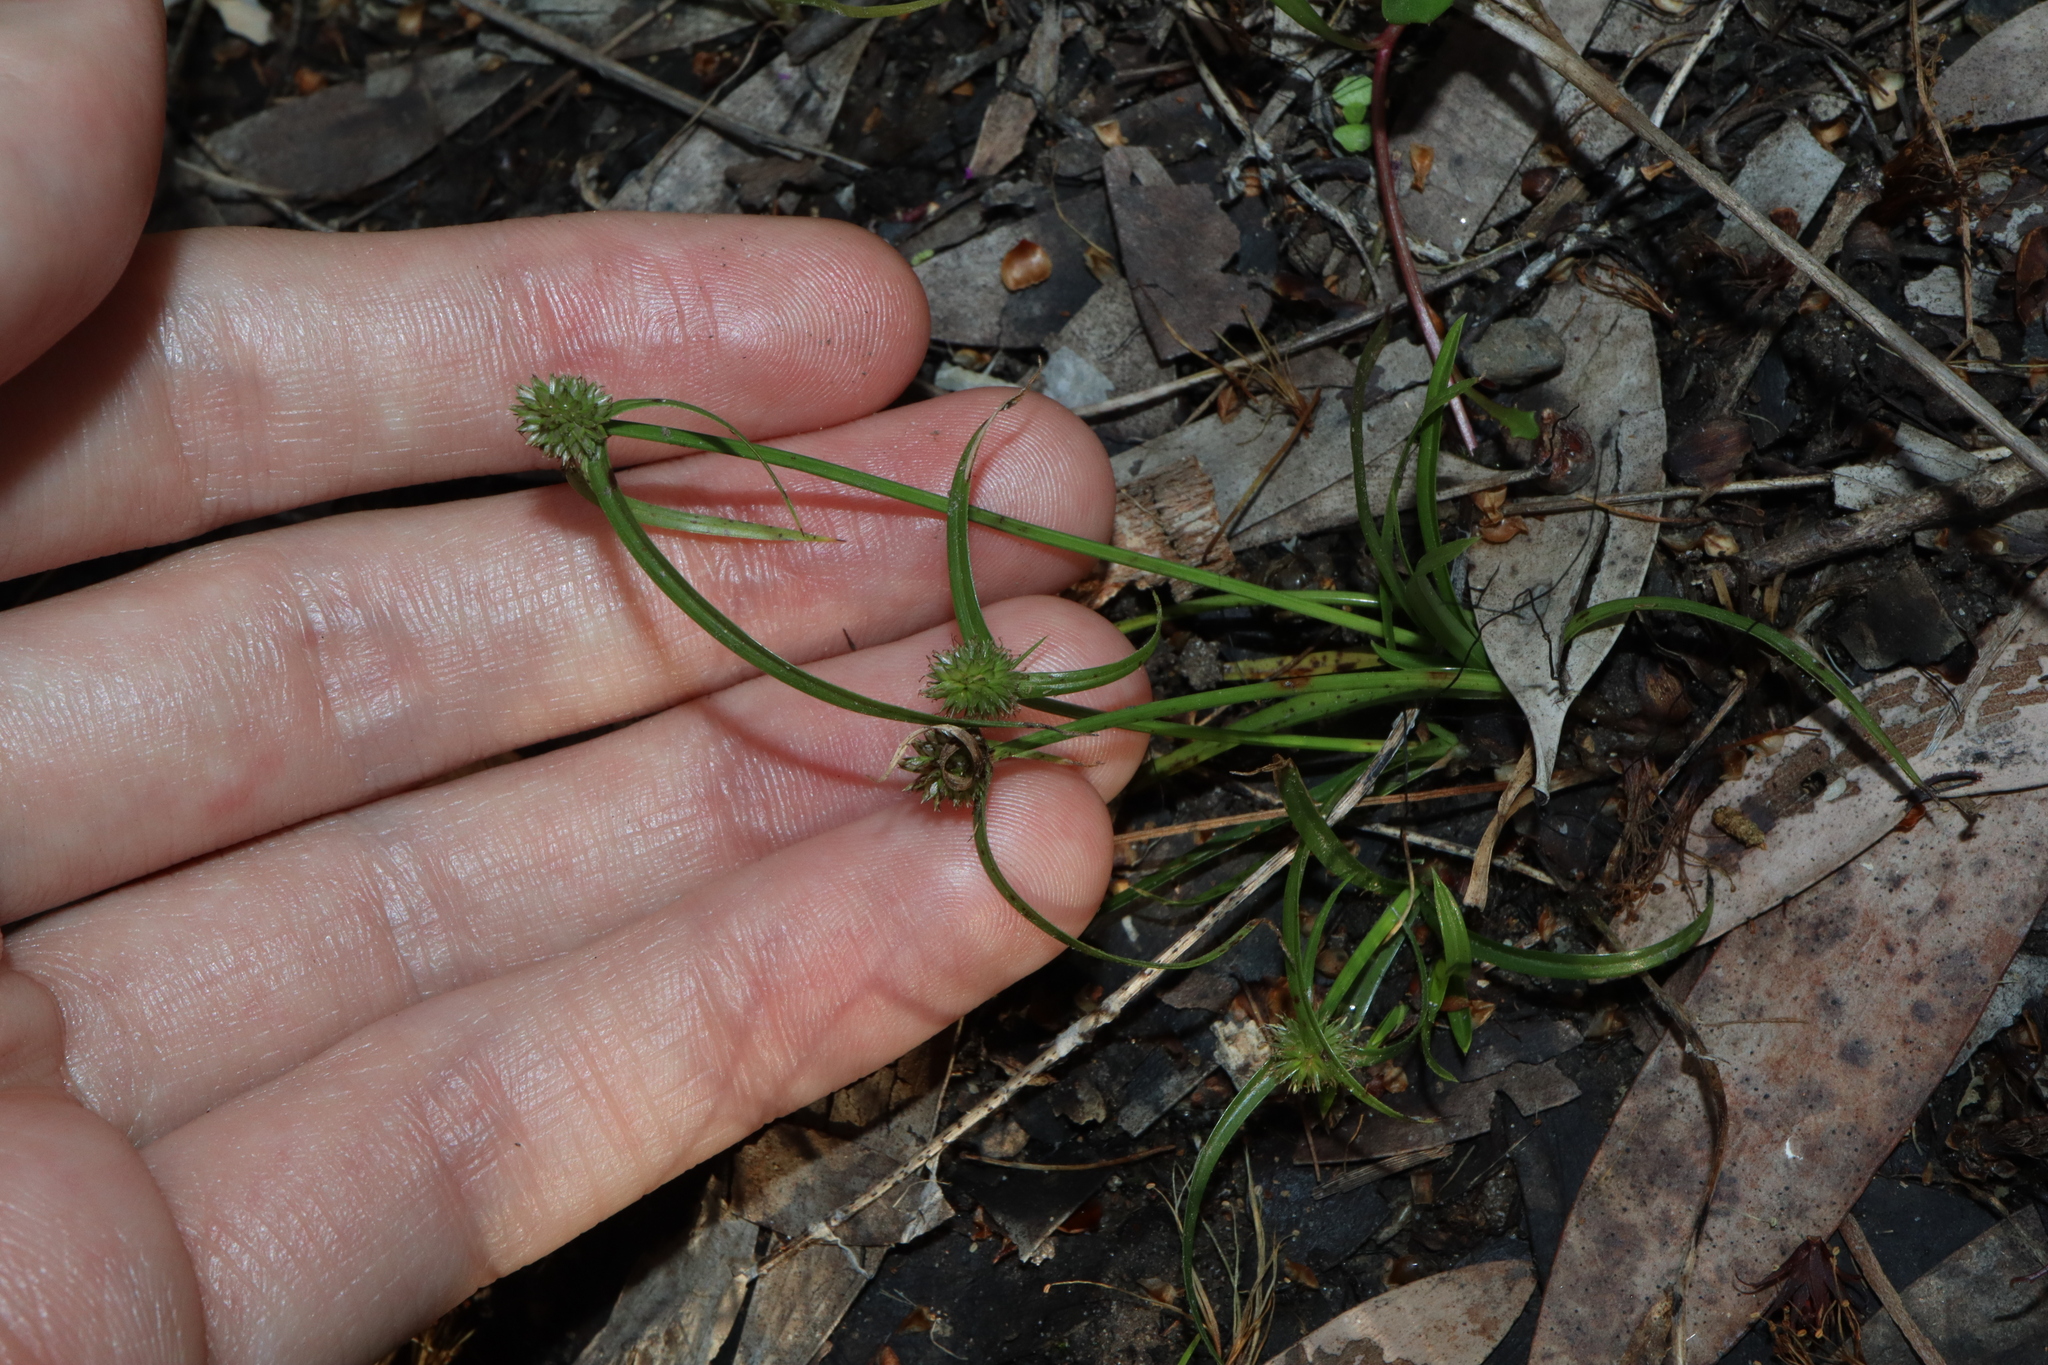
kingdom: Plantae
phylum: Tracheophyta
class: Liliopsida
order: Poales
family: Cyperaceae
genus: Cyperus
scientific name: Cyperus brevifolius
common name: Globe kyllinga
